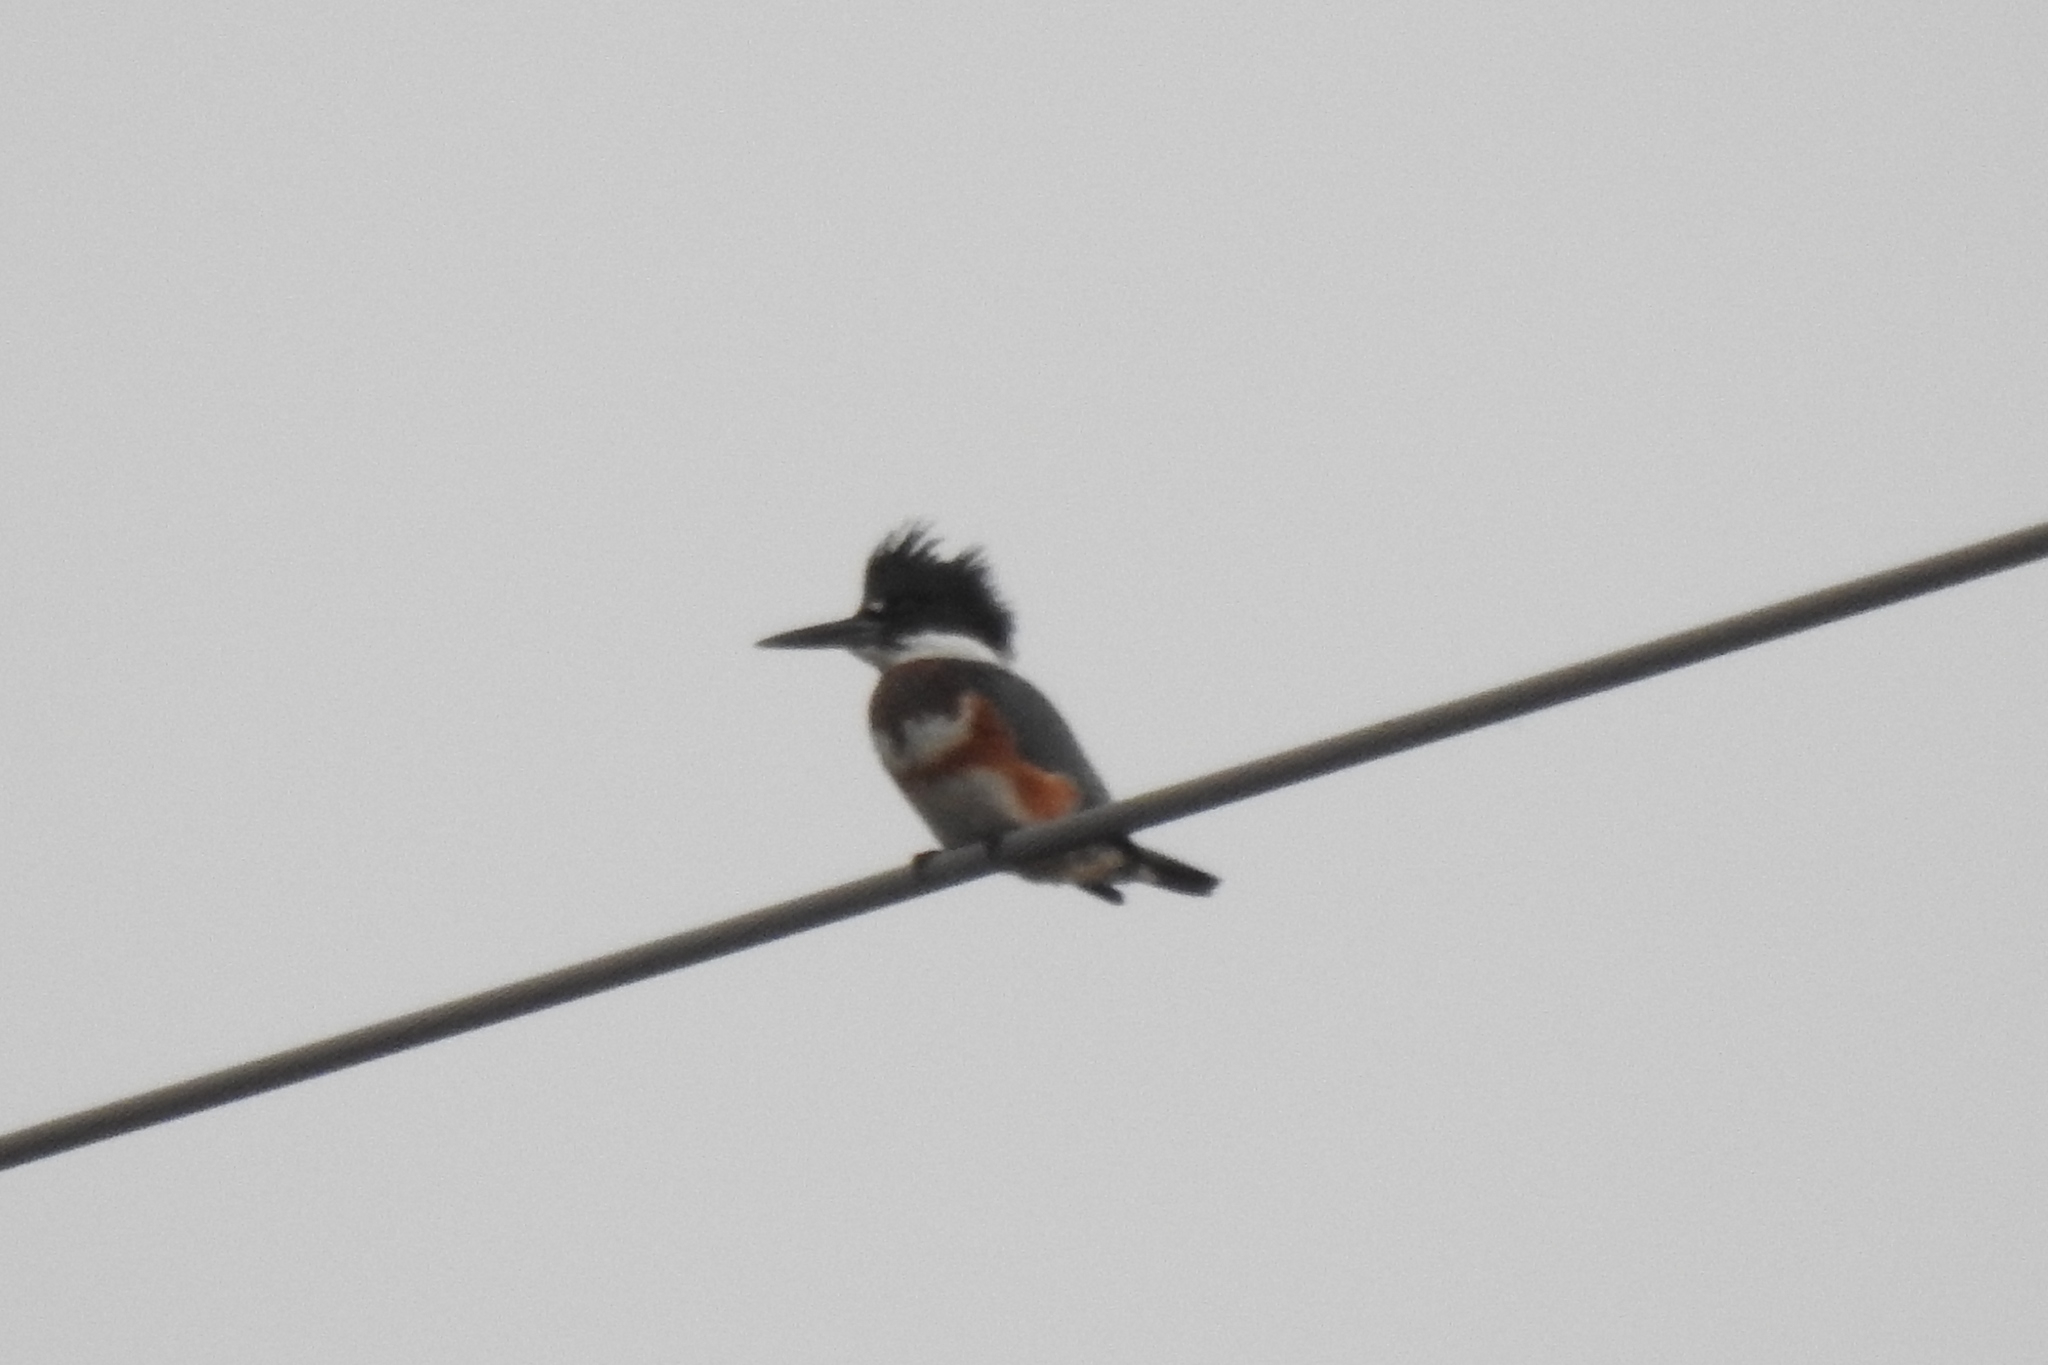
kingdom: Animalia
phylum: Chordata
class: Aves
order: Coraciiformes
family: Alcedinidae
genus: Megaceryle
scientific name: Megaceryle alcyon
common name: Belted kingfisher
